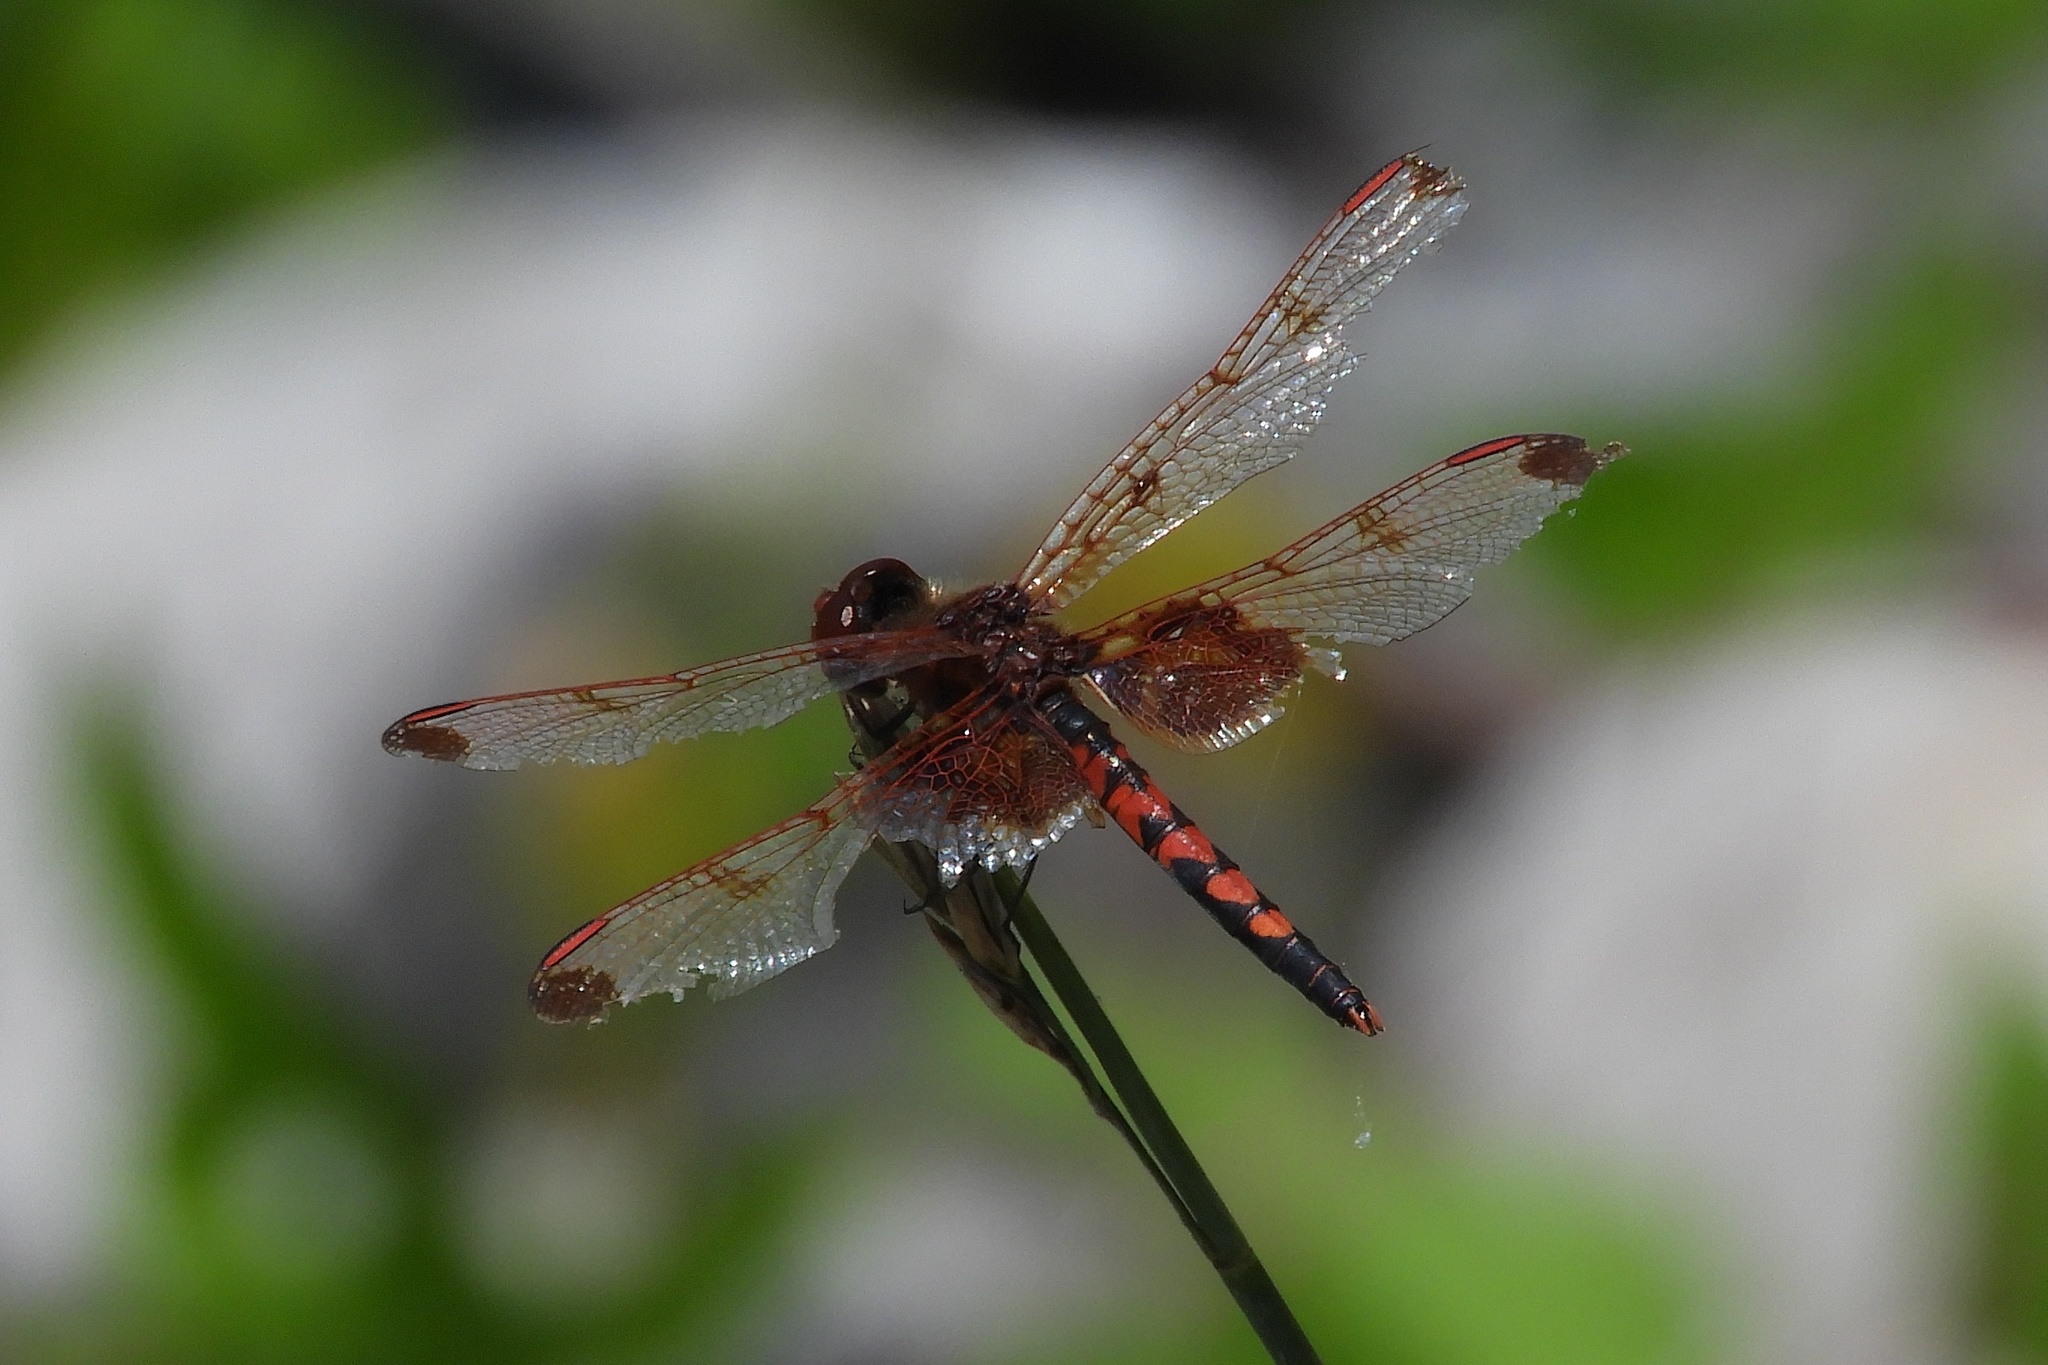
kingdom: Animalia
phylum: Arthropoda
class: Insecta
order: Odonata
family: Libellulidae
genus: Celithemis
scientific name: Celithemis elisa
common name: Calico pennant
